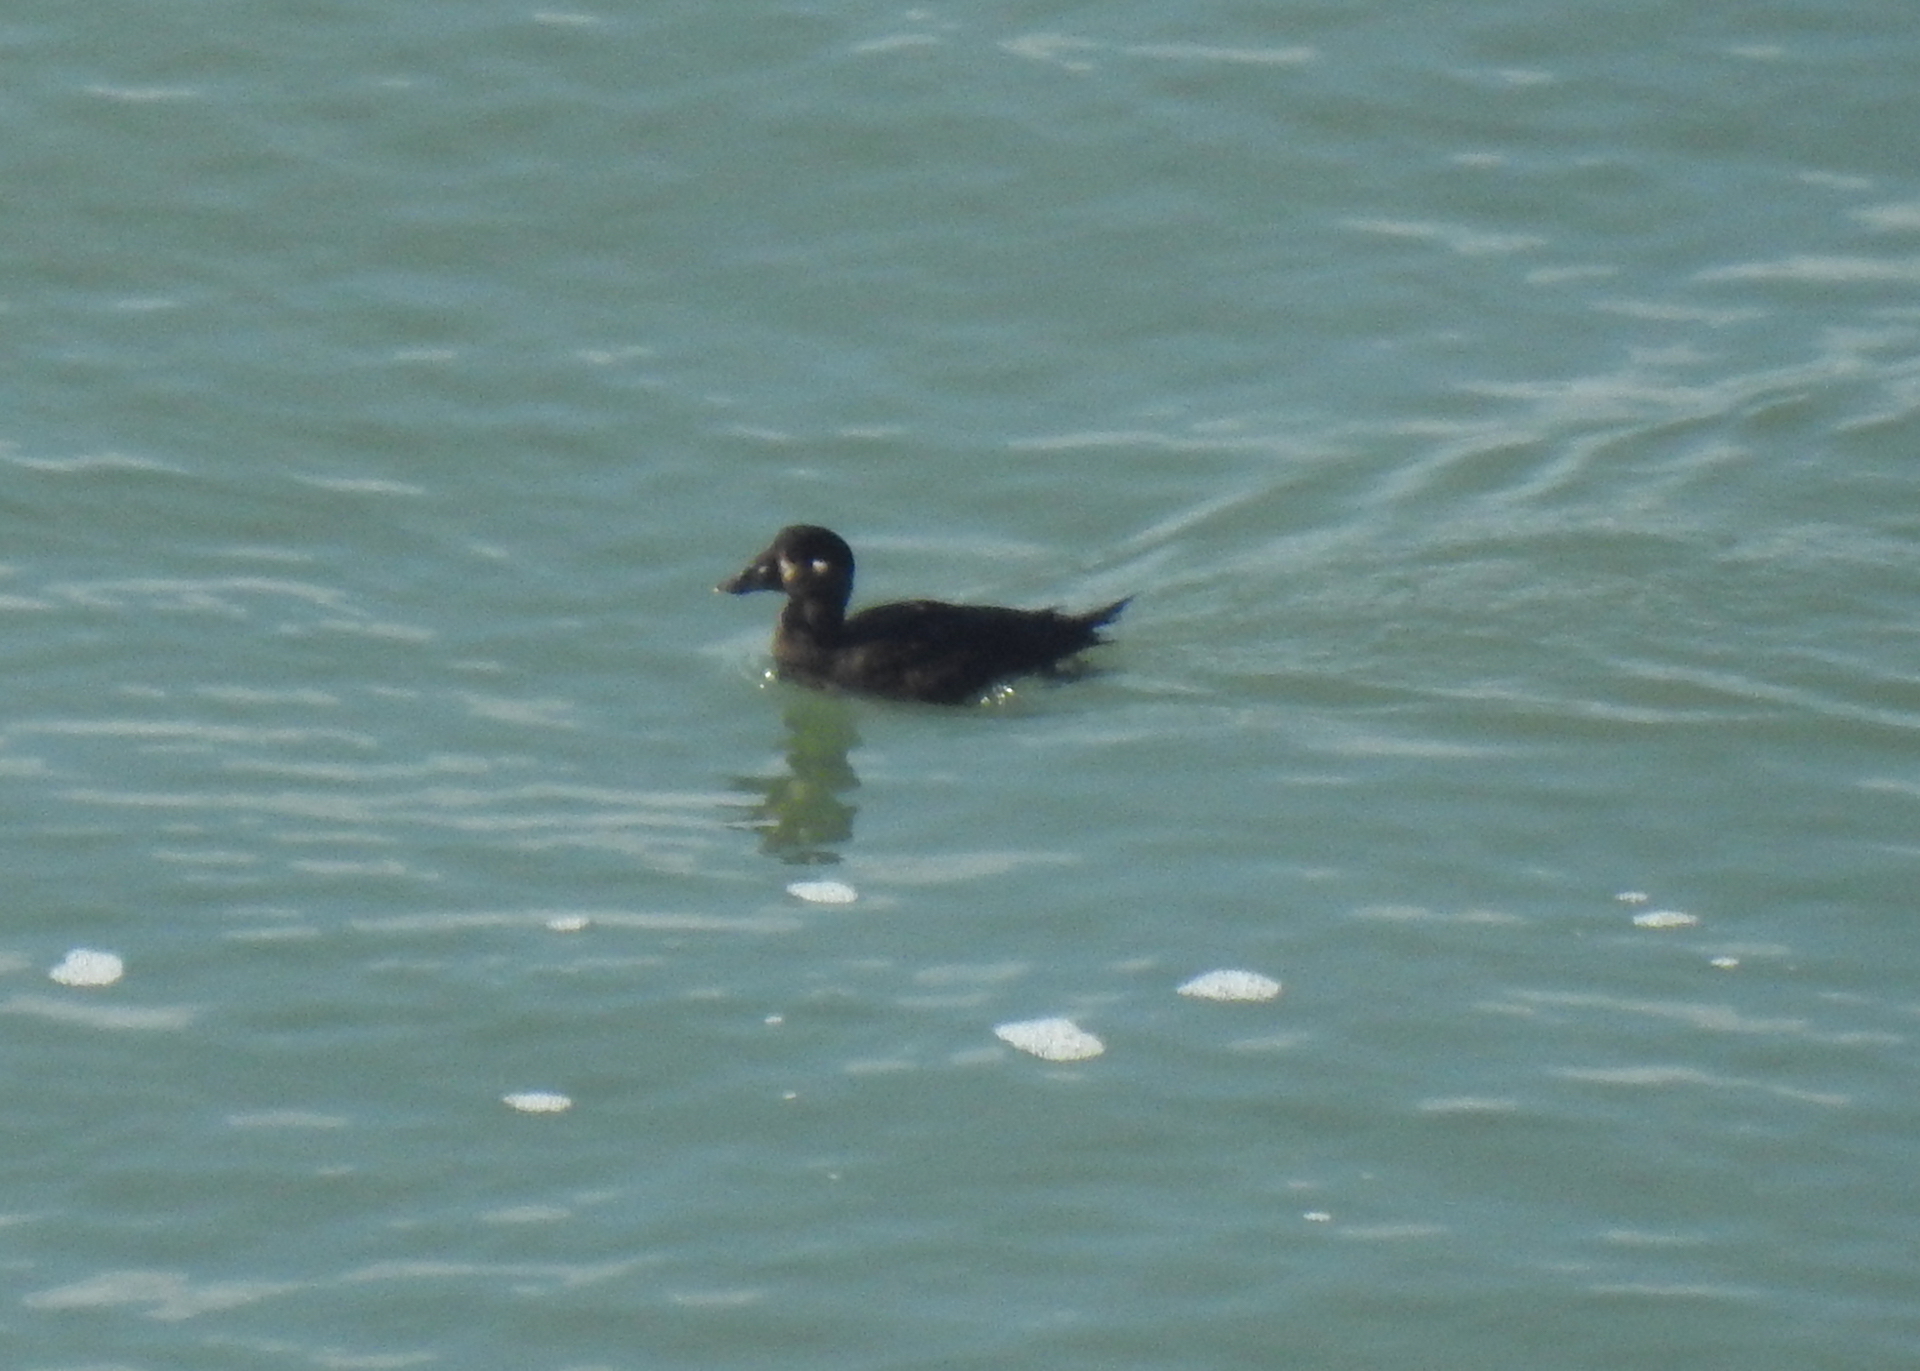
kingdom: Animalia
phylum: Chordata
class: Aves
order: Anseriformes
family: Anatidae
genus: Melanitta
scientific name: Melanitta perspicillata
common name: Surf scoter
